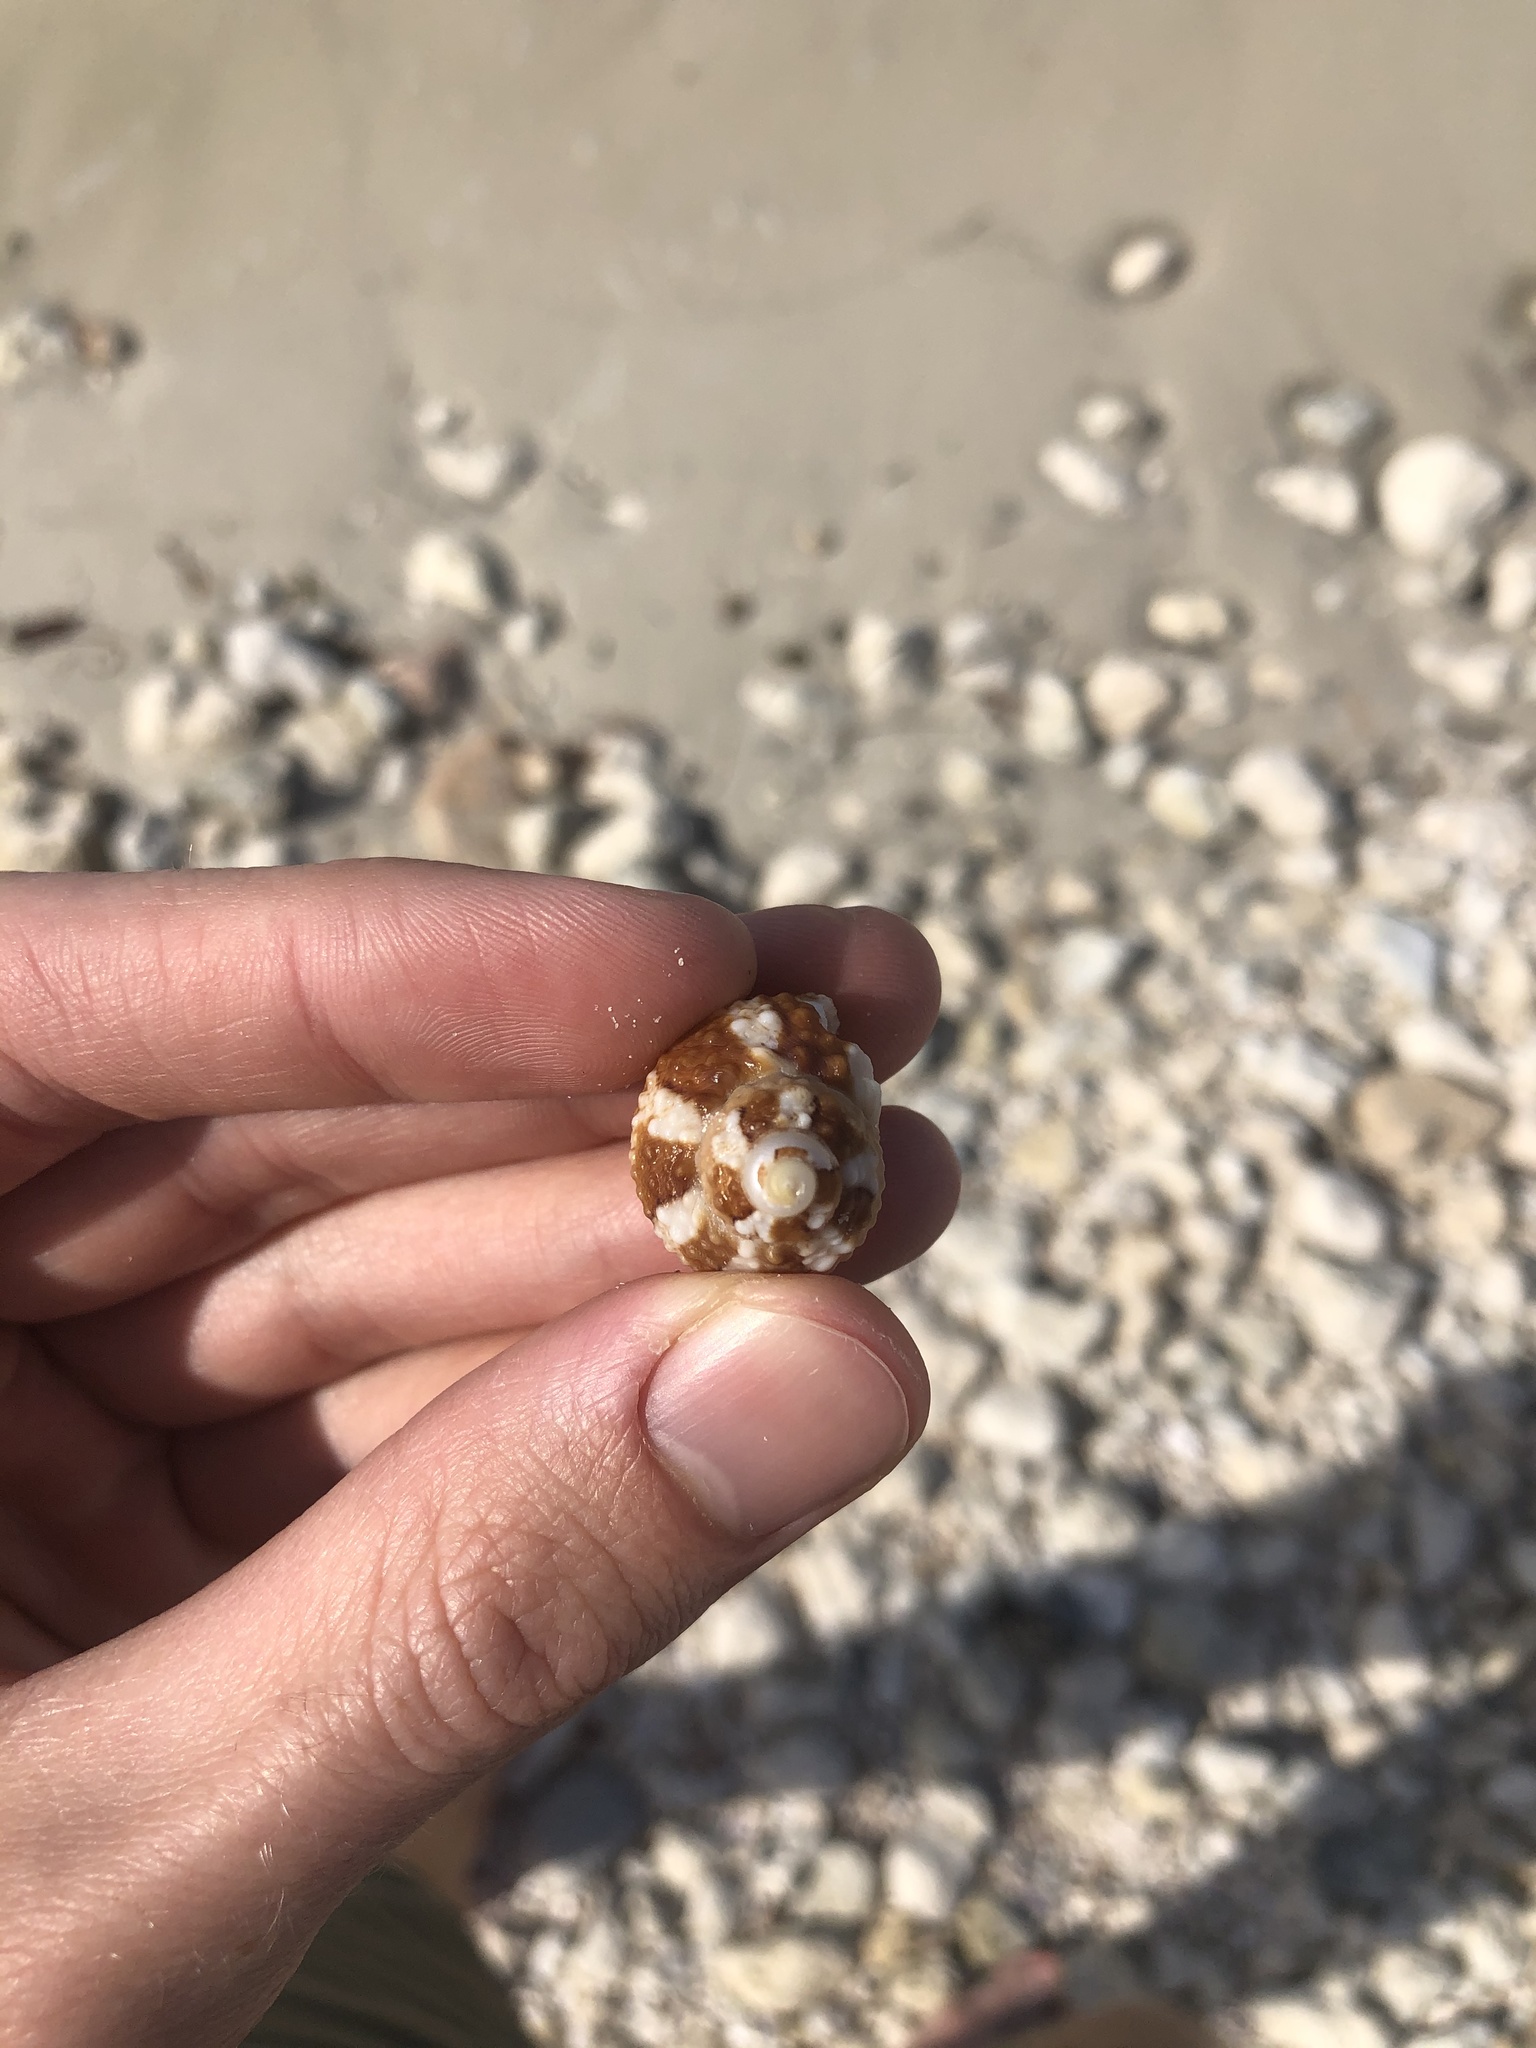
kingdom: Animalia
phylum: Mollusca
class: Gastropoda
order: Trochida
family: Turbinidae
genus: Turbo
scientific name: Turbo castanea
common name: Chestnut turban
